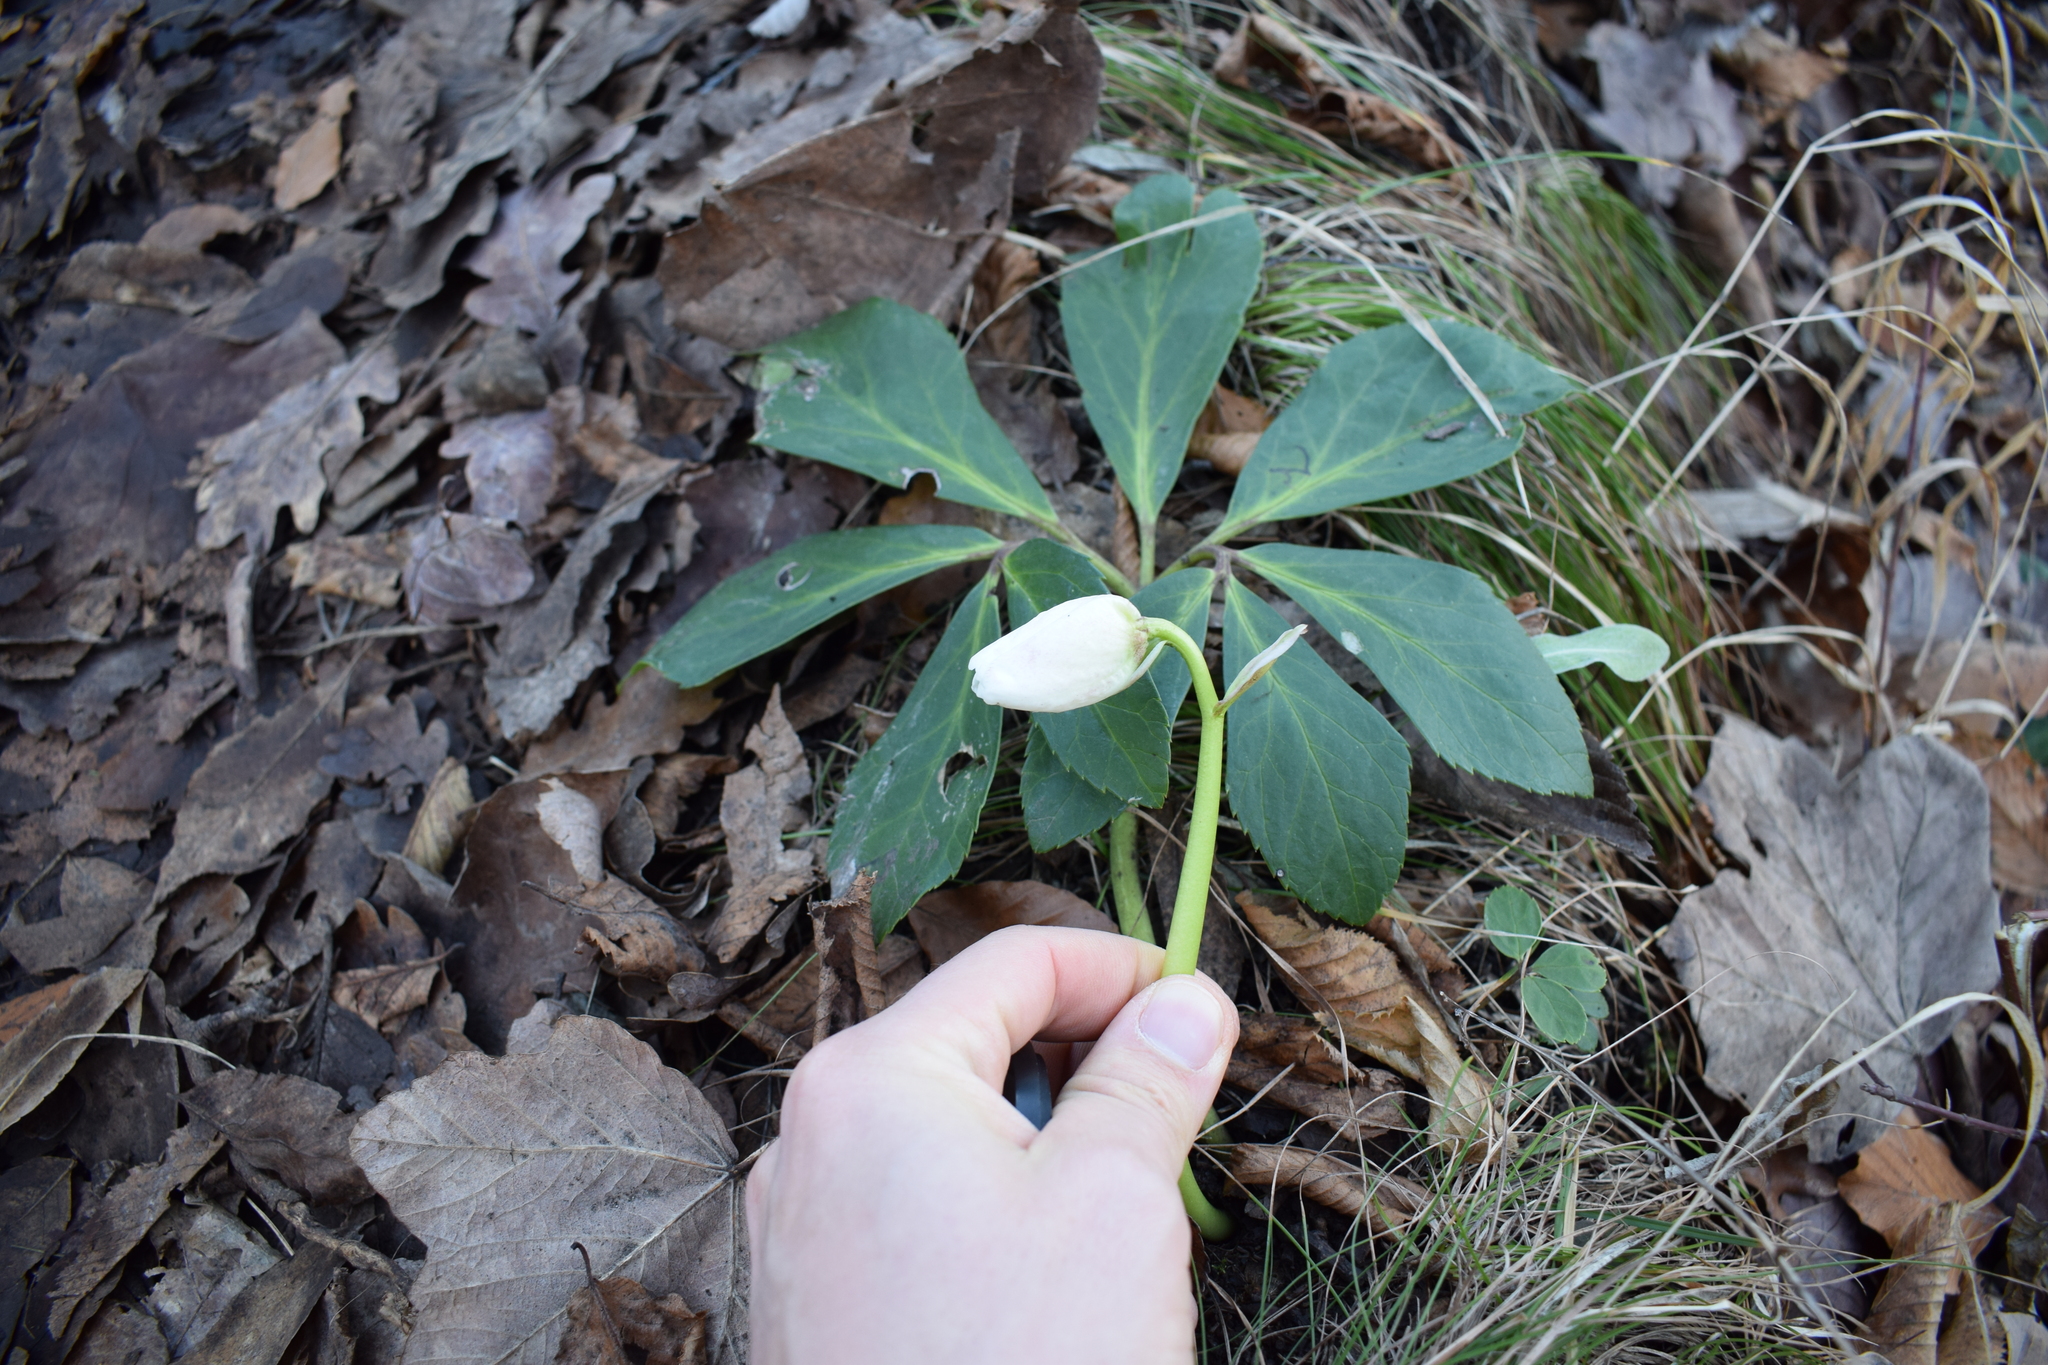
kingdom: Plantae
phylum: Tracheophyta
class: Magnoliopsida
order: Ranunculales
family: Ranunculaceae
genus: Helleborus
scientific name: Helleborus niger
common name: Black hellebore
